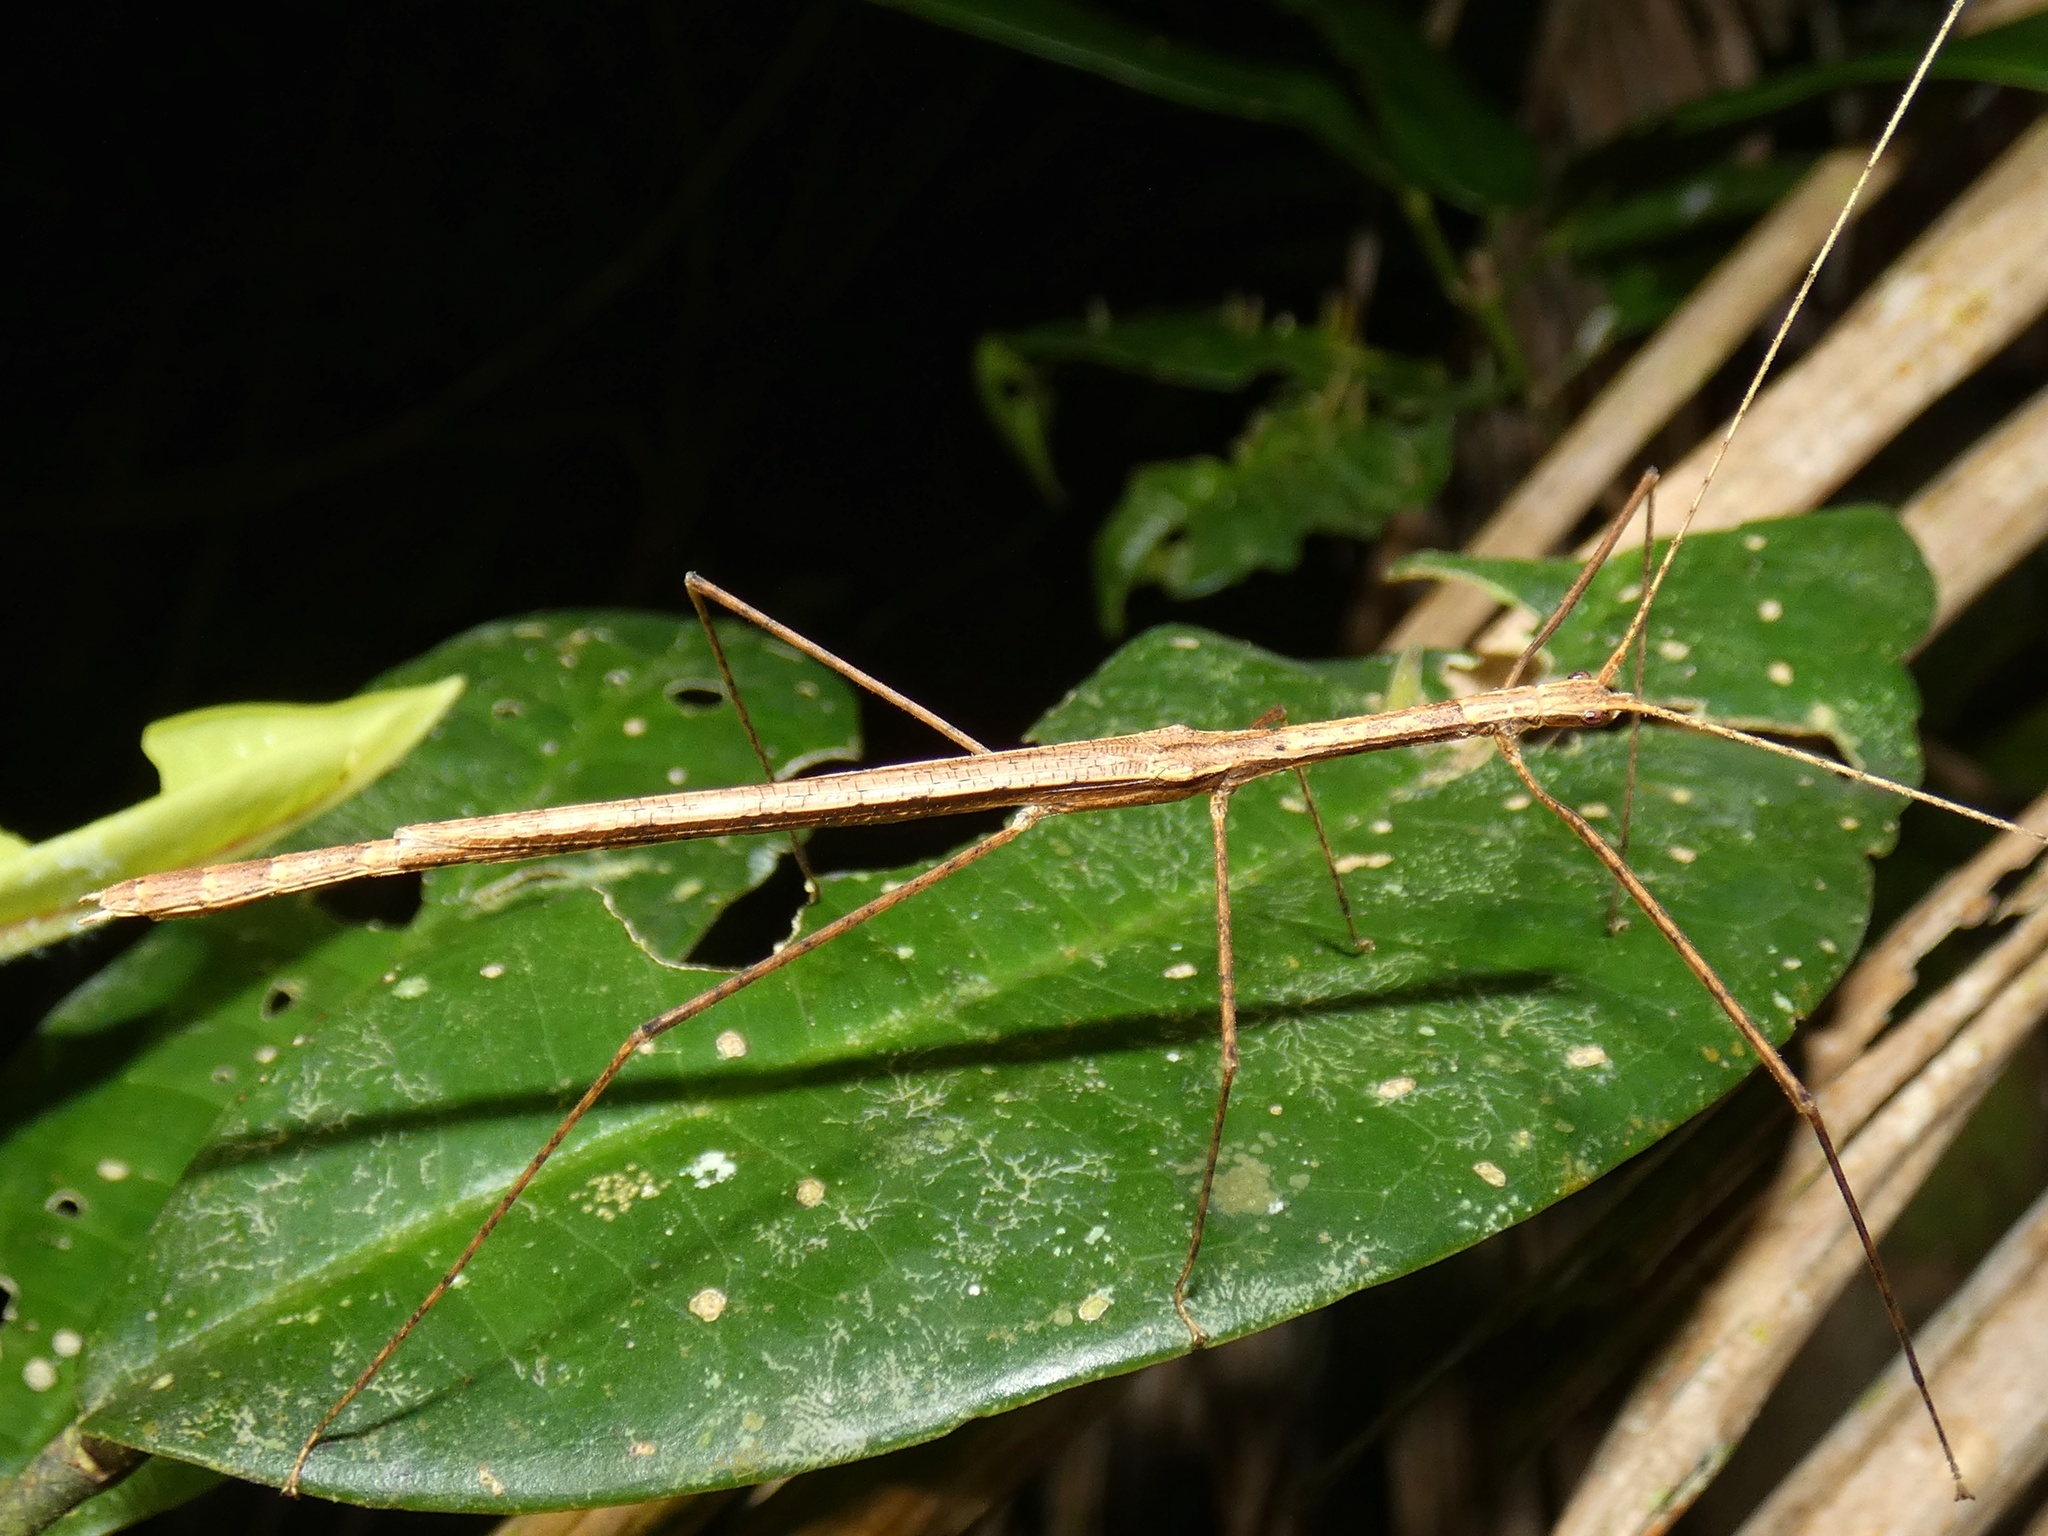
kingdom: Animalia
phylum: Arthropoda
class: Insecta
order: Phasmida
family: Lonchodidae
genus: Sipyloidea
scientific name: Sipyloidea larryi
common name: Hurricane larry stick-insect
